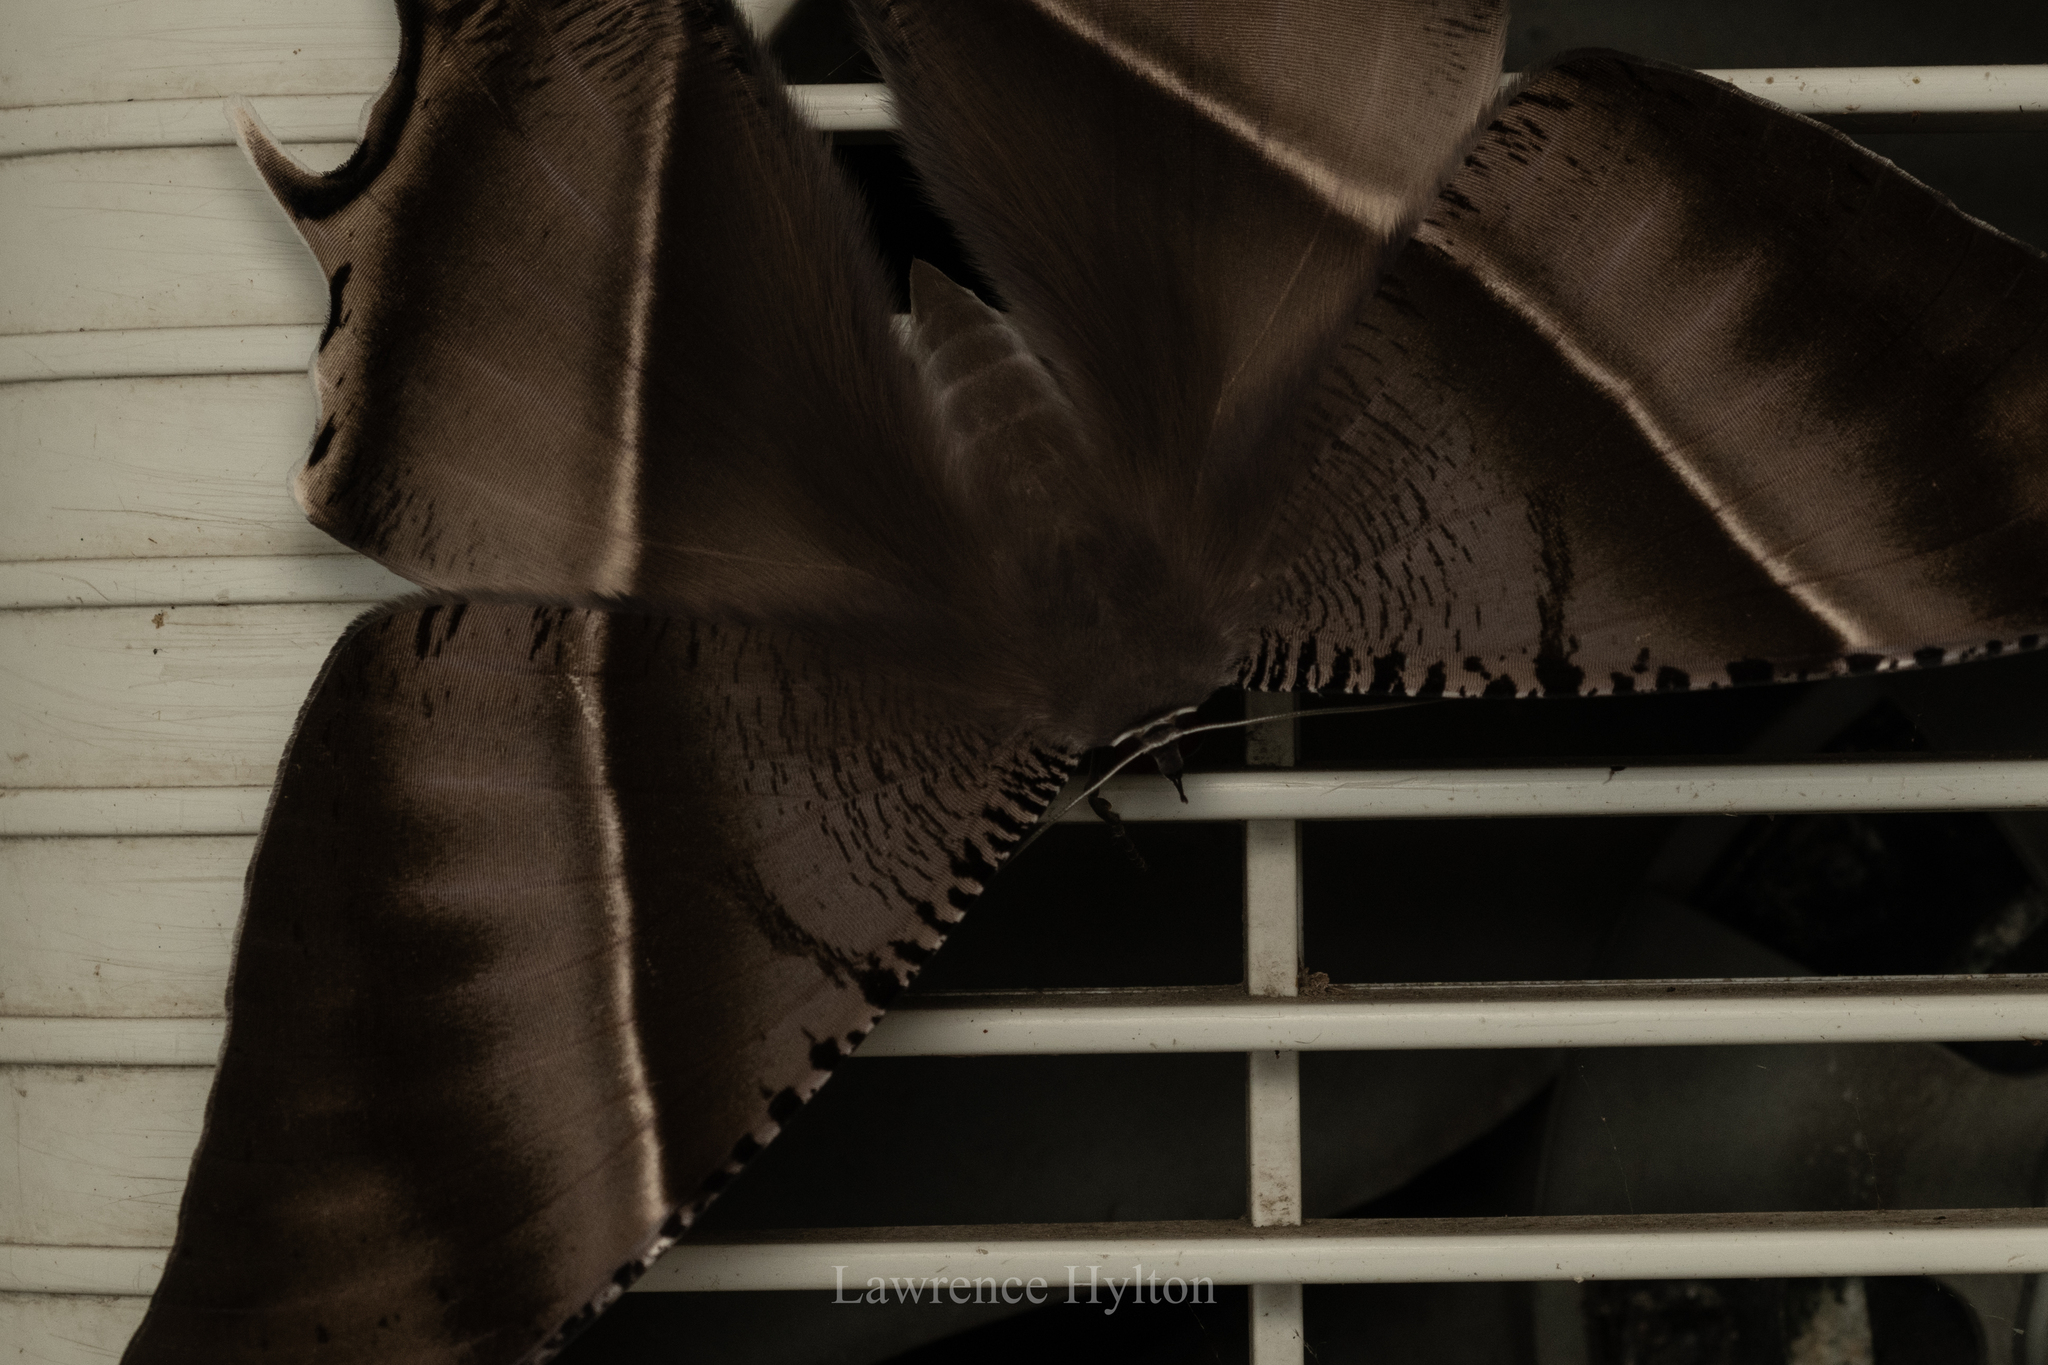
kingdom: Animalia
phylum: Arthropoda
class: Insecta
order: Lepidoptera
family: Uraniidae
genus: Lyssa
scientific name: Lyssa zampa
